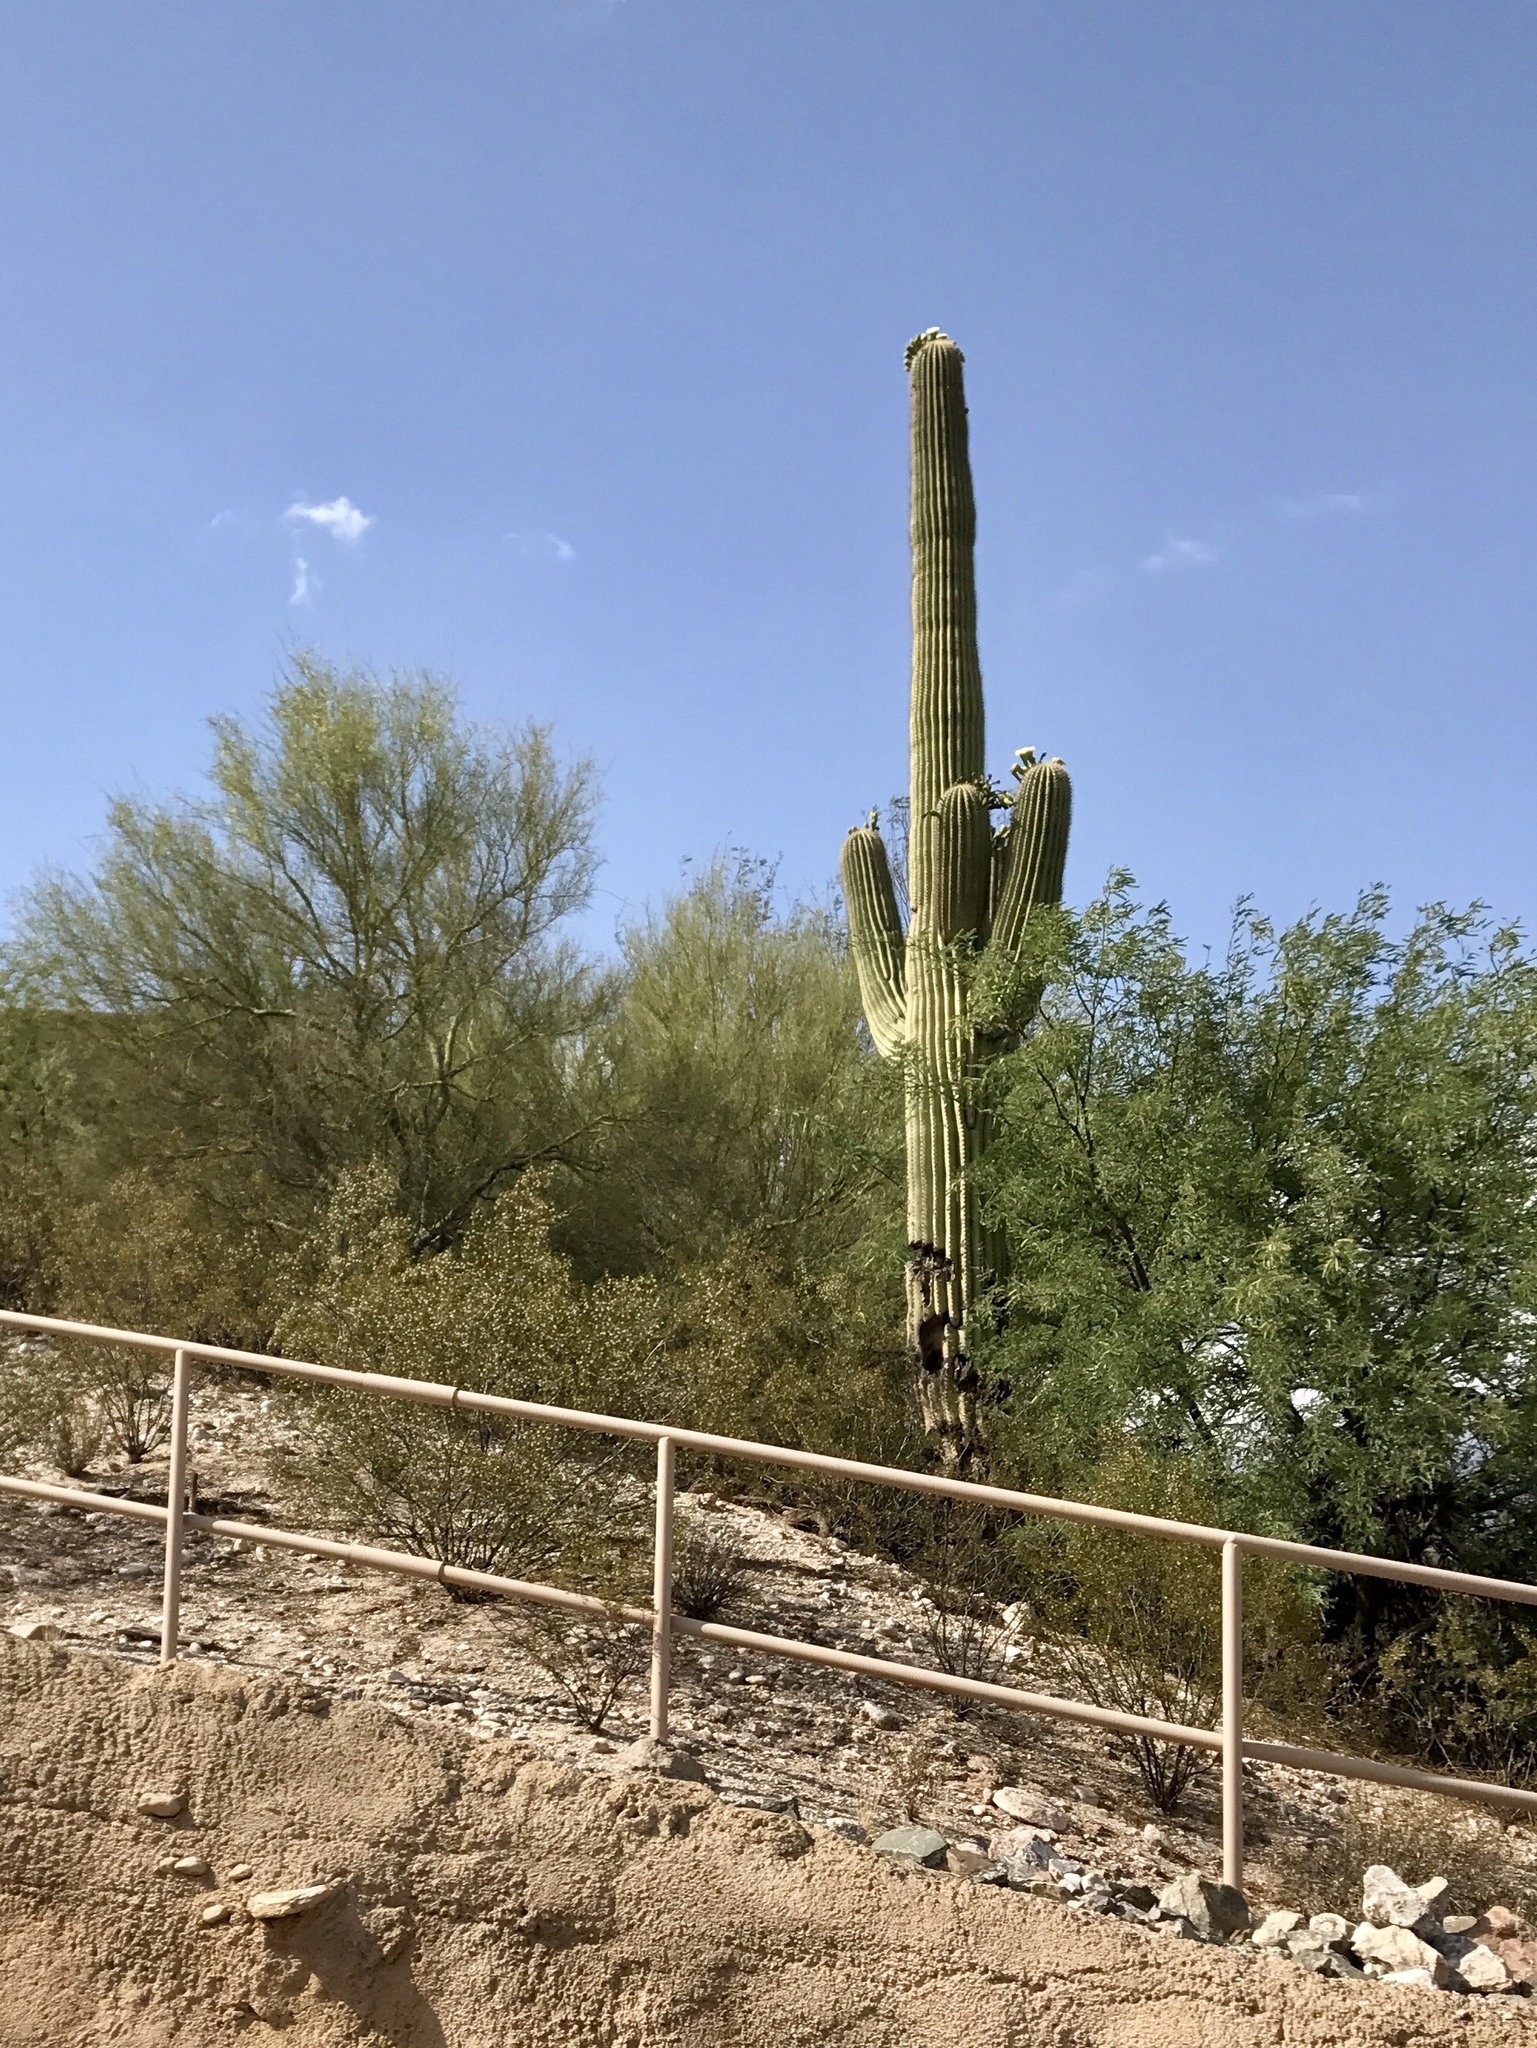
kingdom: Plantae
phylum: Tracheophyta
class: Magnoliopsida
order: Caryophyllales
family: Cactaceae
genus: Carnegiea
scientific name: Carnegiea gigantea
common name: Saguaro
